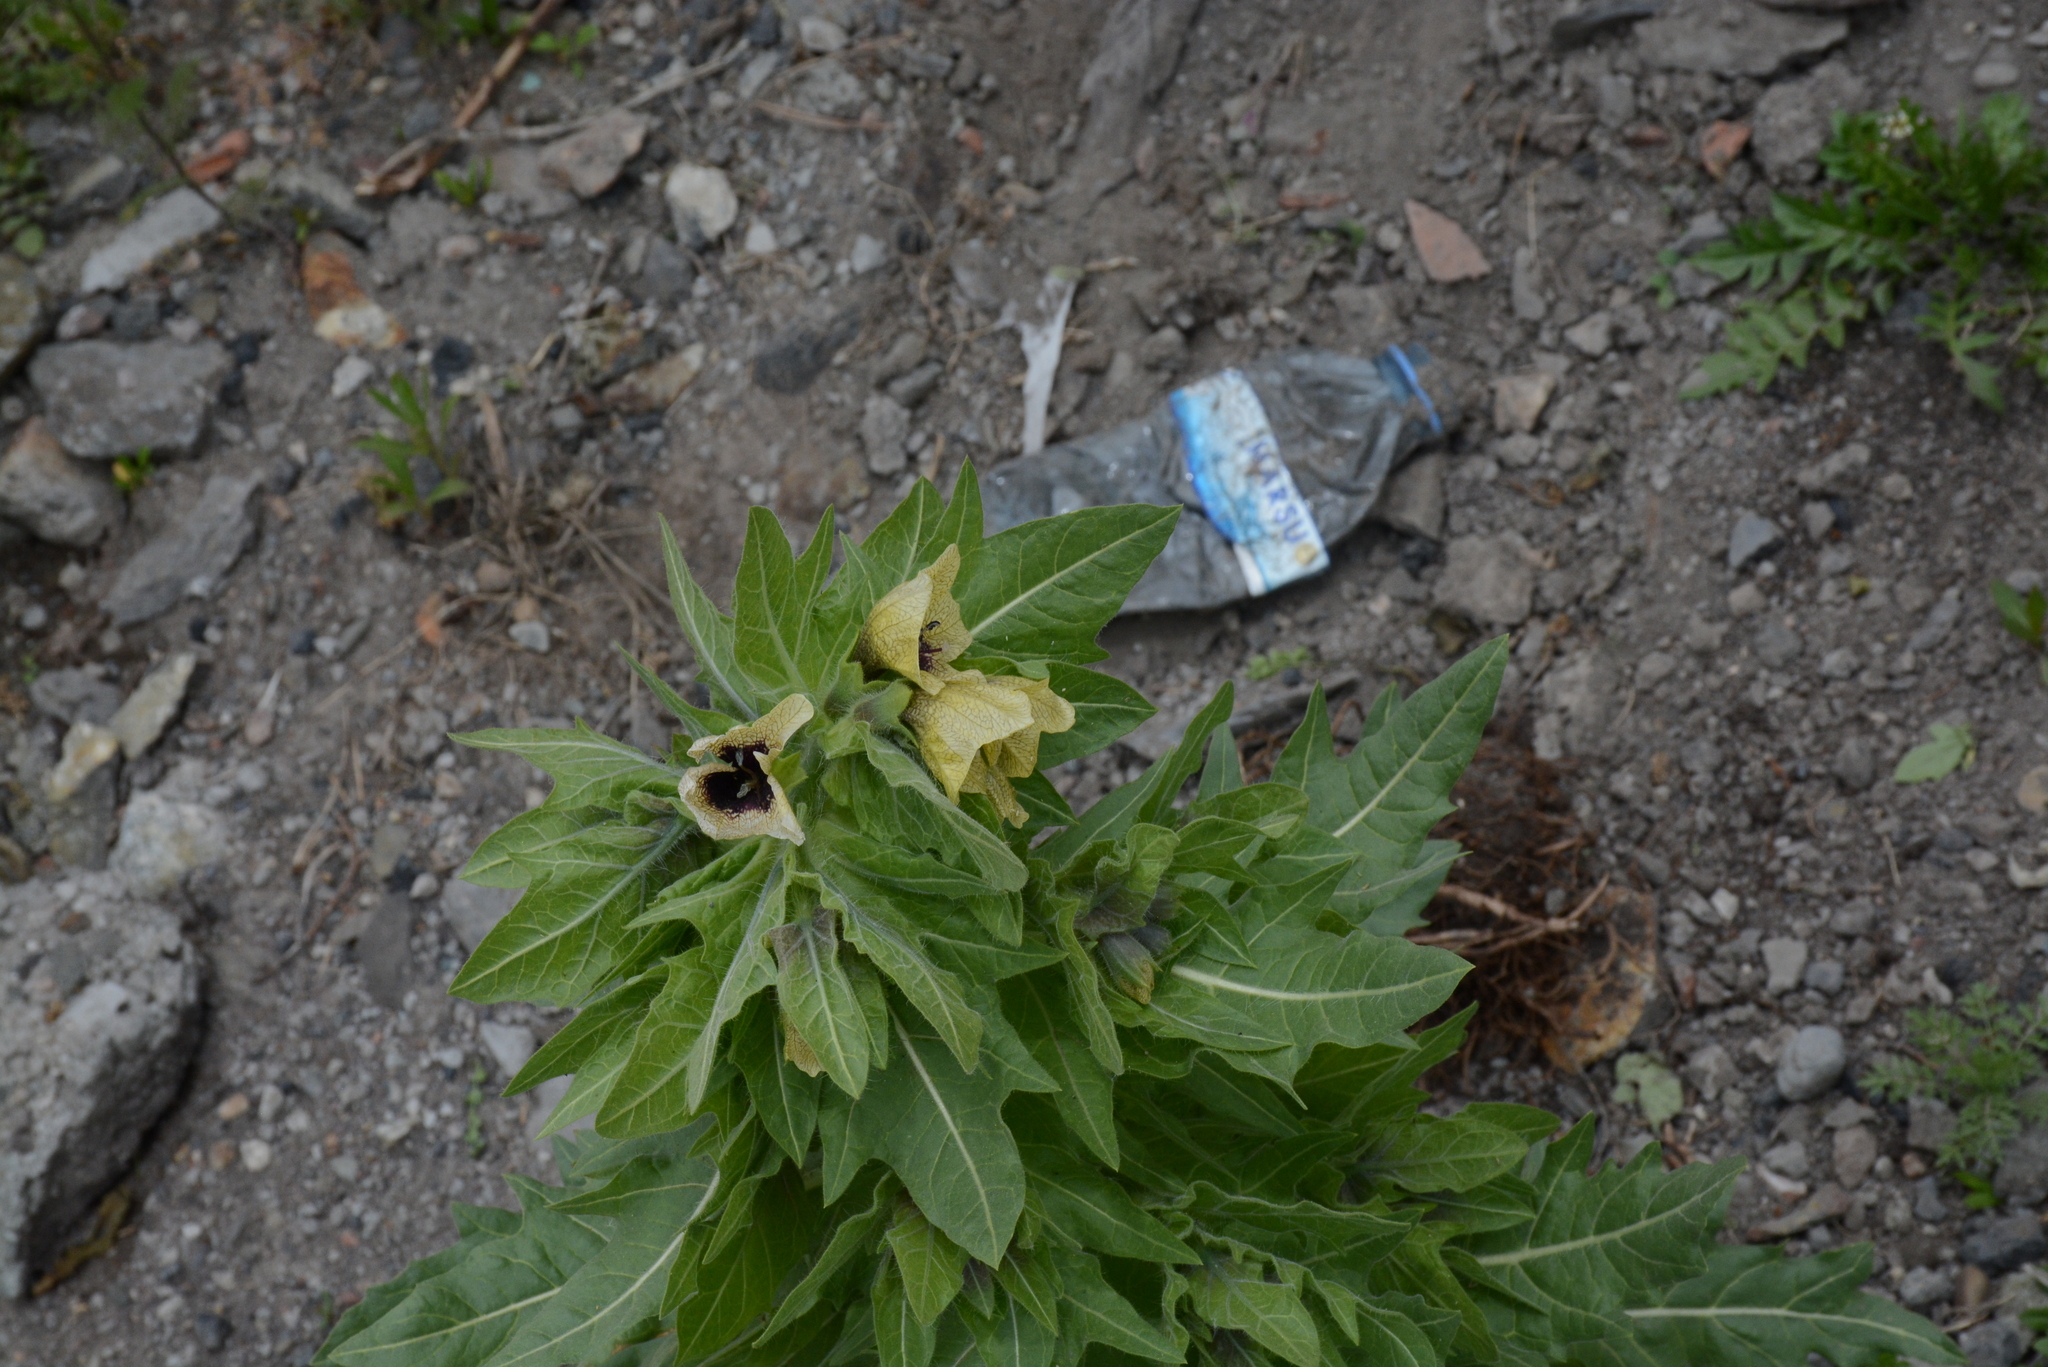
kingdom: Plantae
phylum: Tracheophyta
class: Magnoliopsida
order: Solanales
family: Solanaceae
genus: Hyoscyamus
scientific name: Hyoscyamus niger
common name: Henbane
